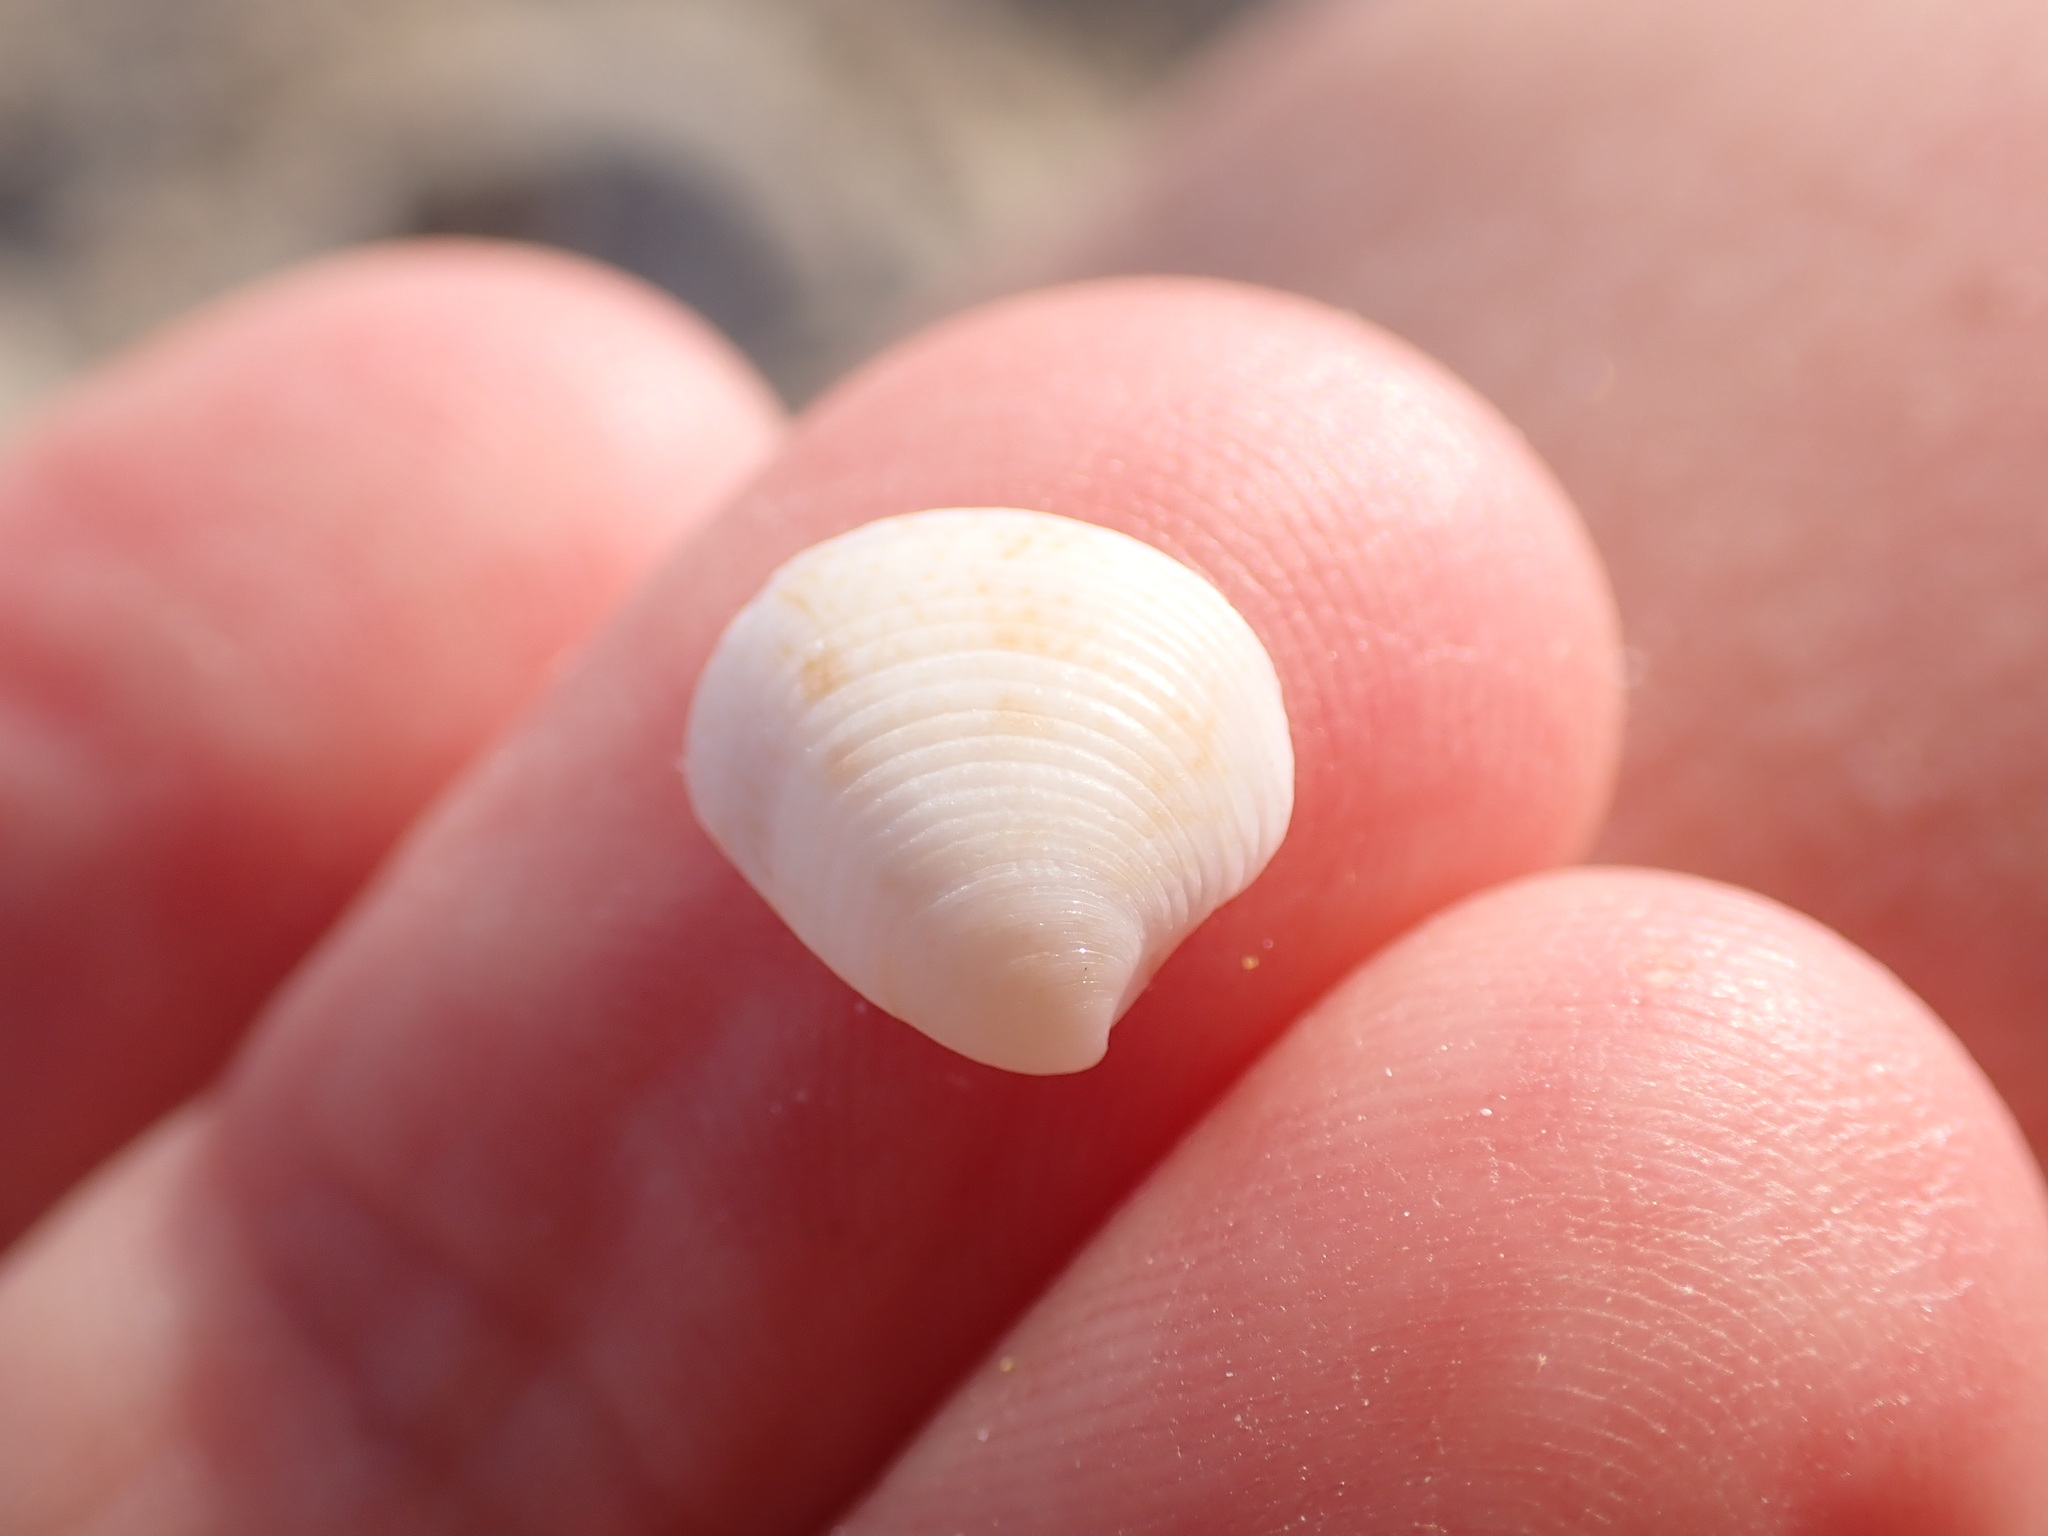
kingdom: Animalia
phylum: Mollusca
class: Bivalvia
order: Venerida
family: Veneridae
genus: Chamelea
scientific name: Chamelea gallina
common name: Chicken venus
